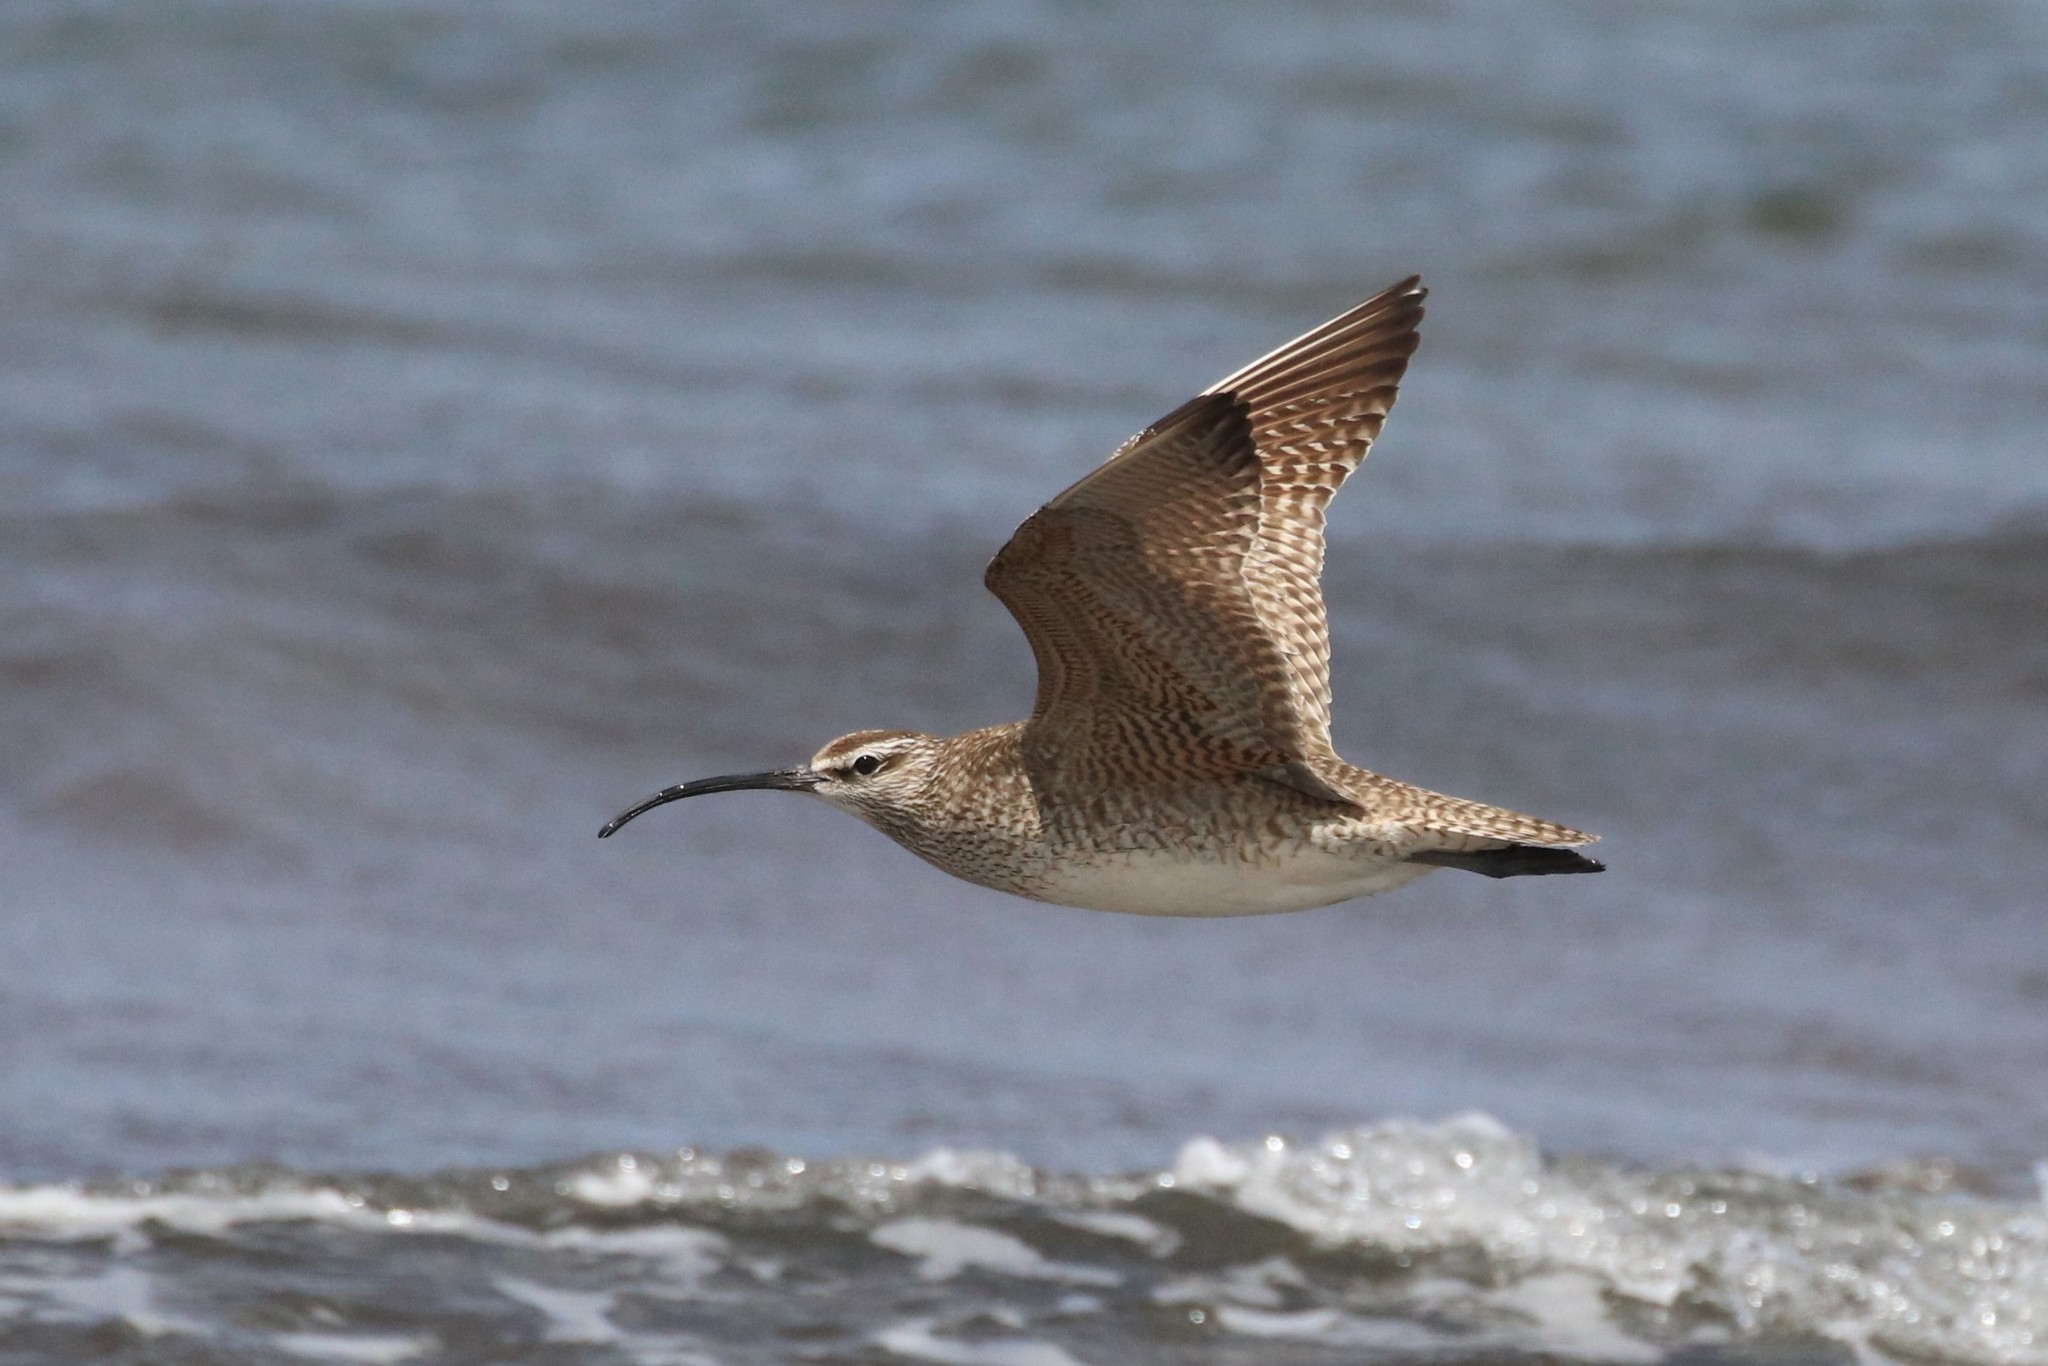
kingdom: Animalia
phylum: Chordata
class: Aves
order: Charadriiformes
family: Scolopacidae
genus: Numenius
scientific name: Numenius phaeopus
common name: Whimbrel
